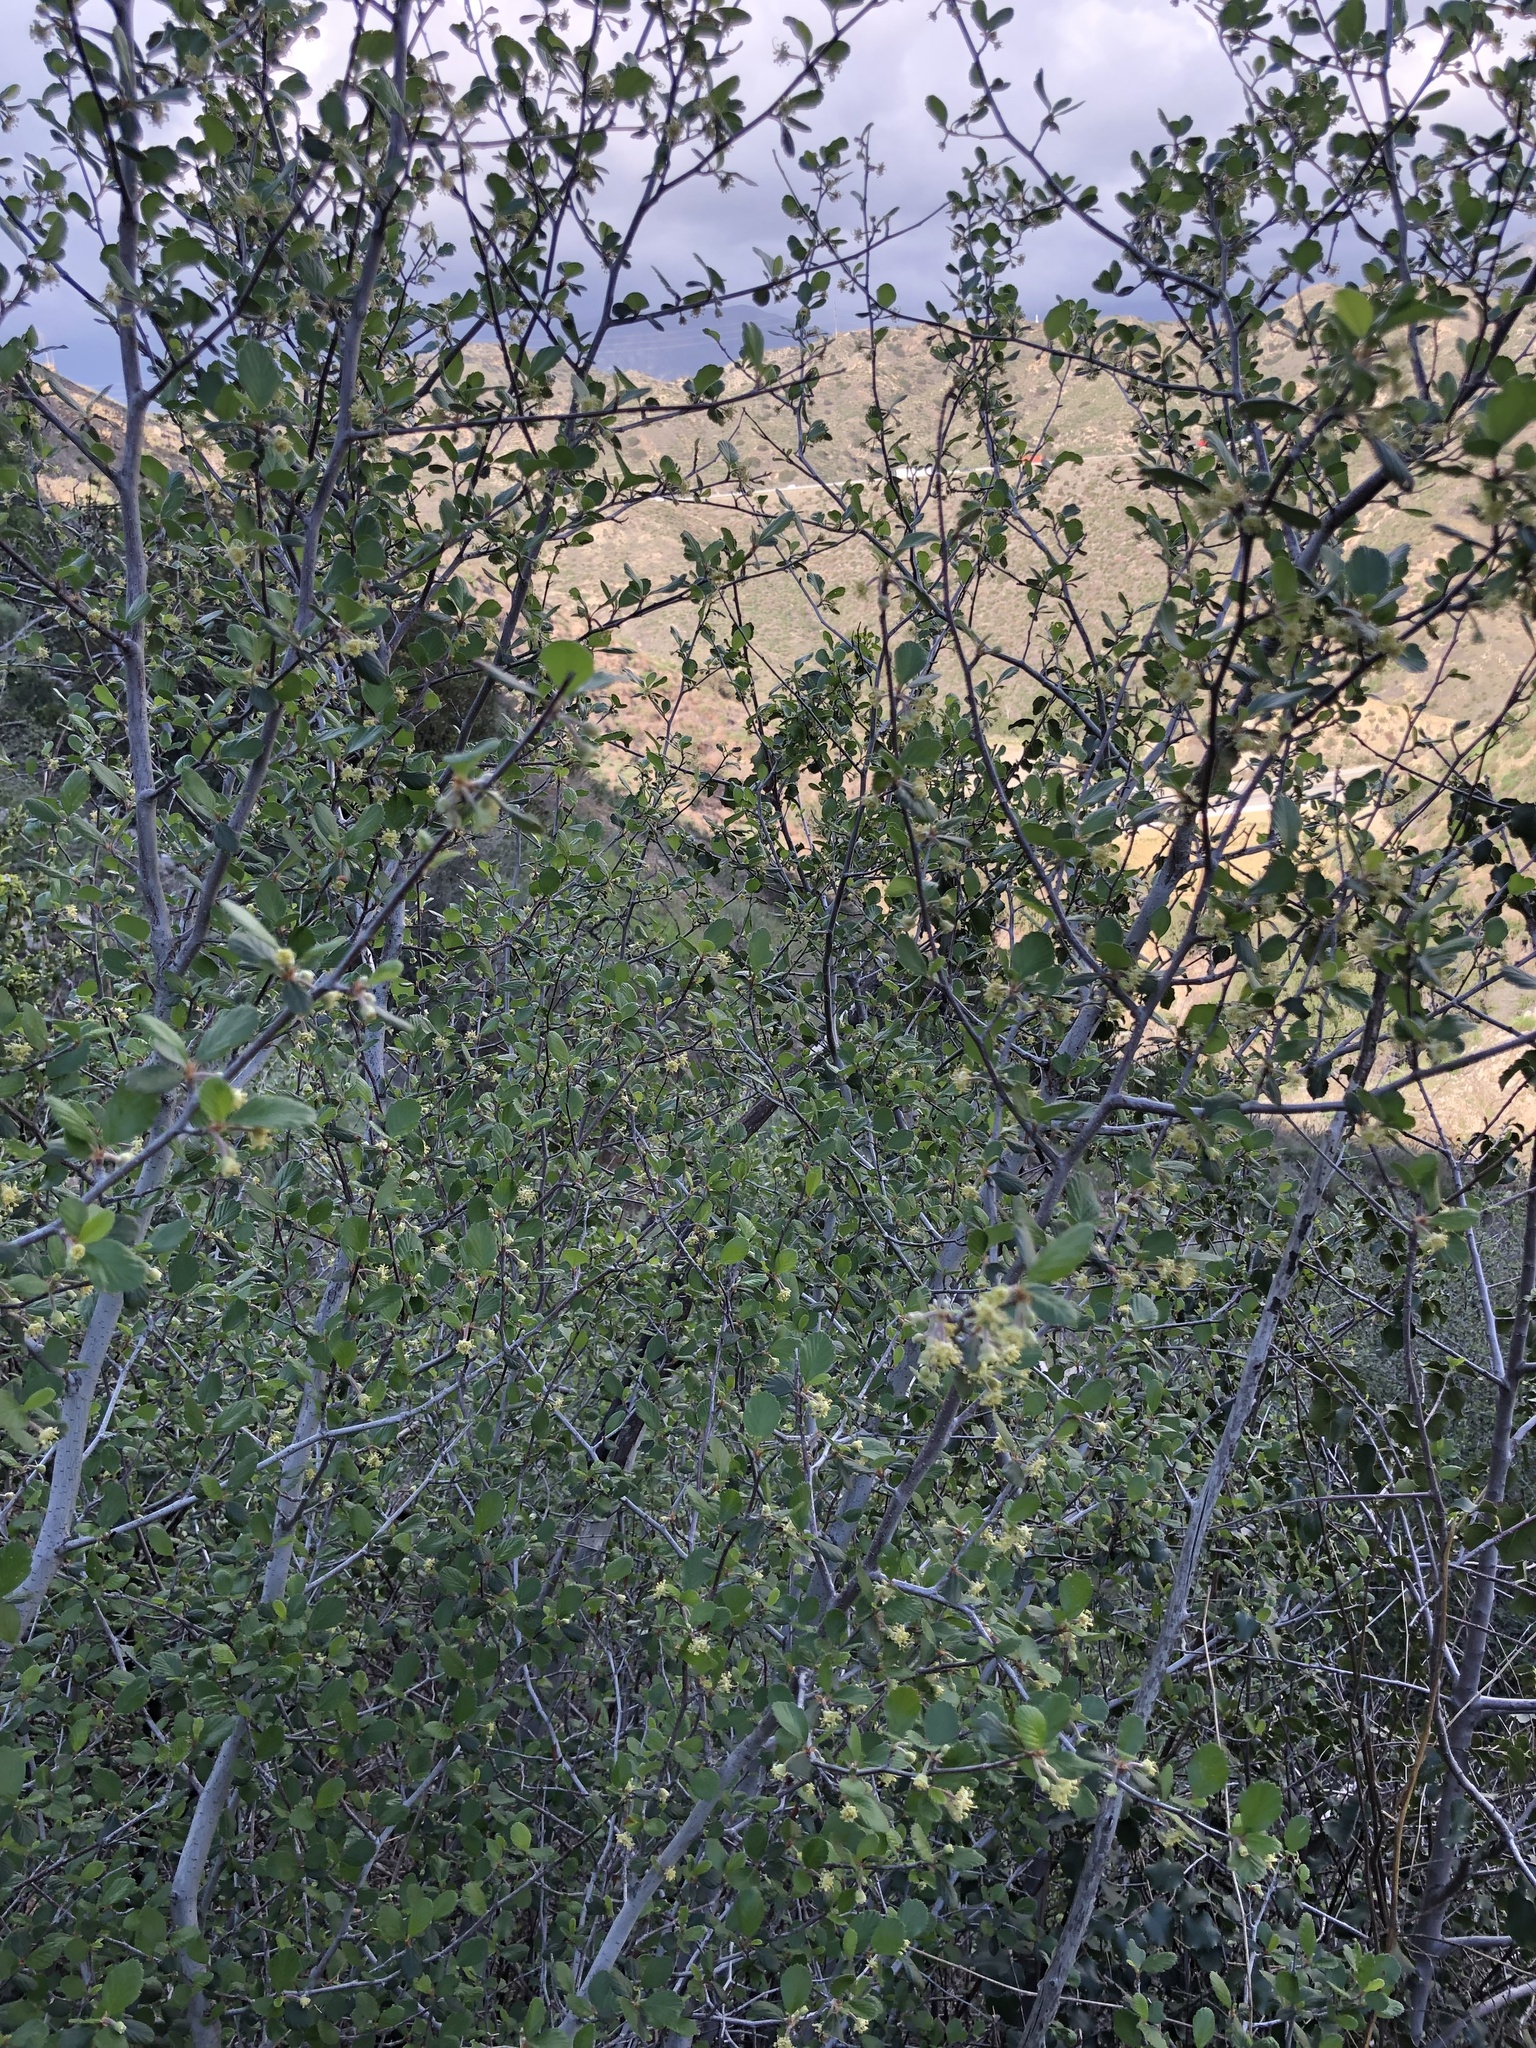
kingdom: Plantae
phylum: Tracheophyta
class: Magnoliopsida
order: Rosales
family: Rosaceae
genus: Cercocarpus
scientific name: Cercocarpus betuloides
